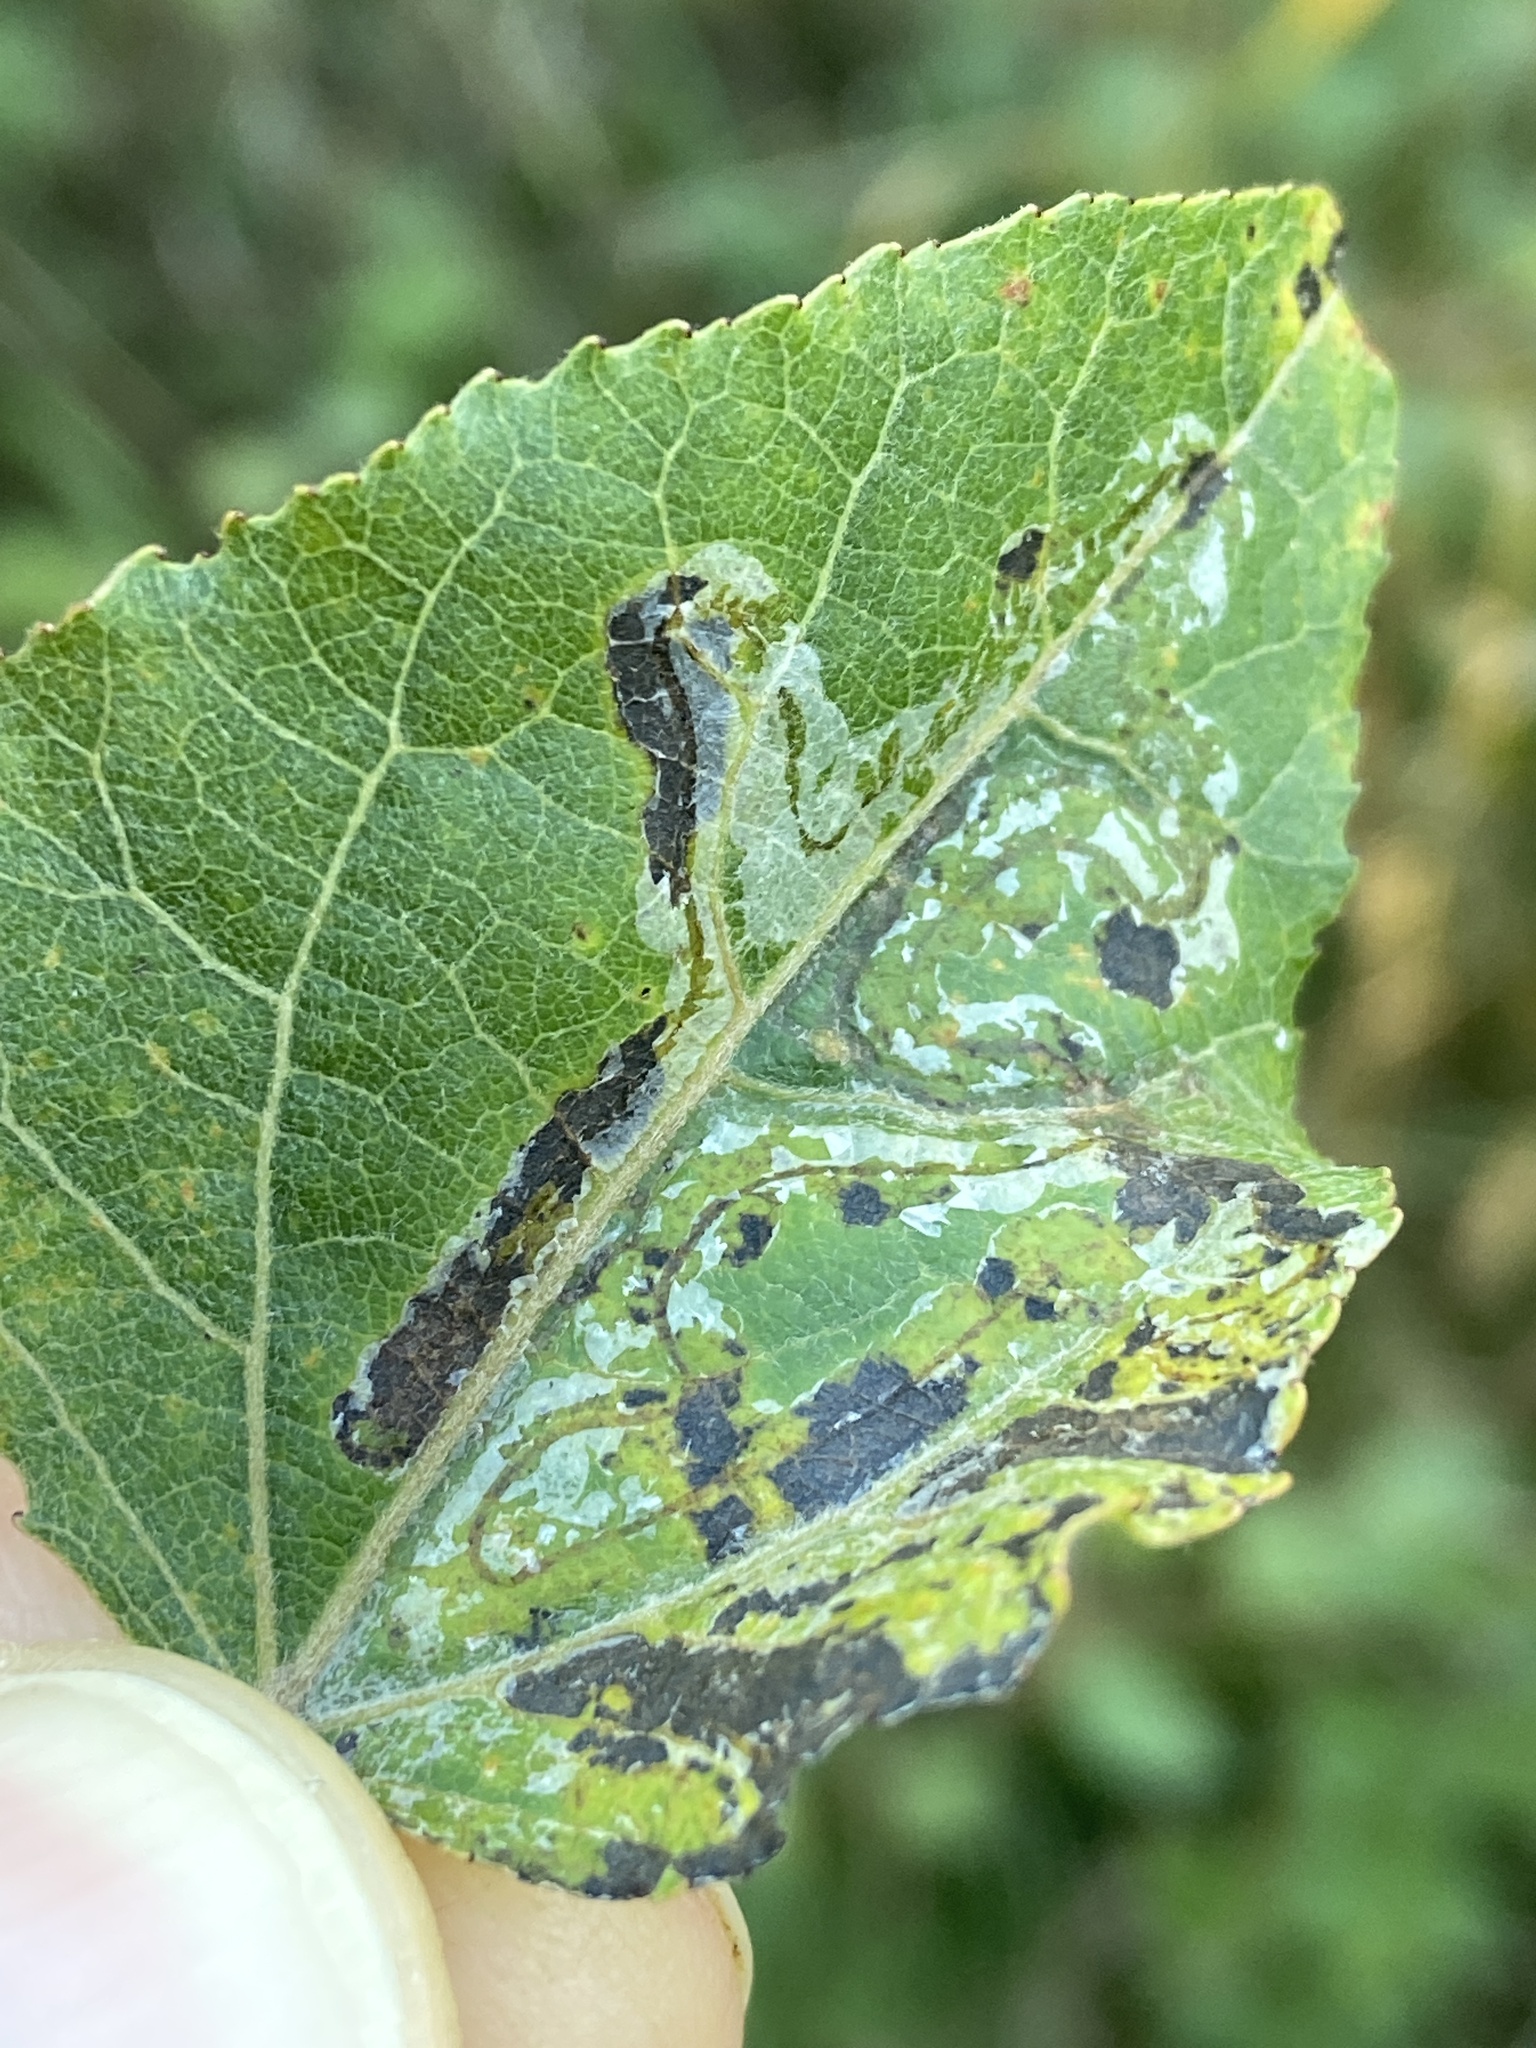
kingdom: Animalia
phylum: Arthropoda
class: Insecta
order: Lepidoptera
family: Gracillariidae
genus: Phyllocnistis
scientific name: Phyllocnistis labyrinthella
